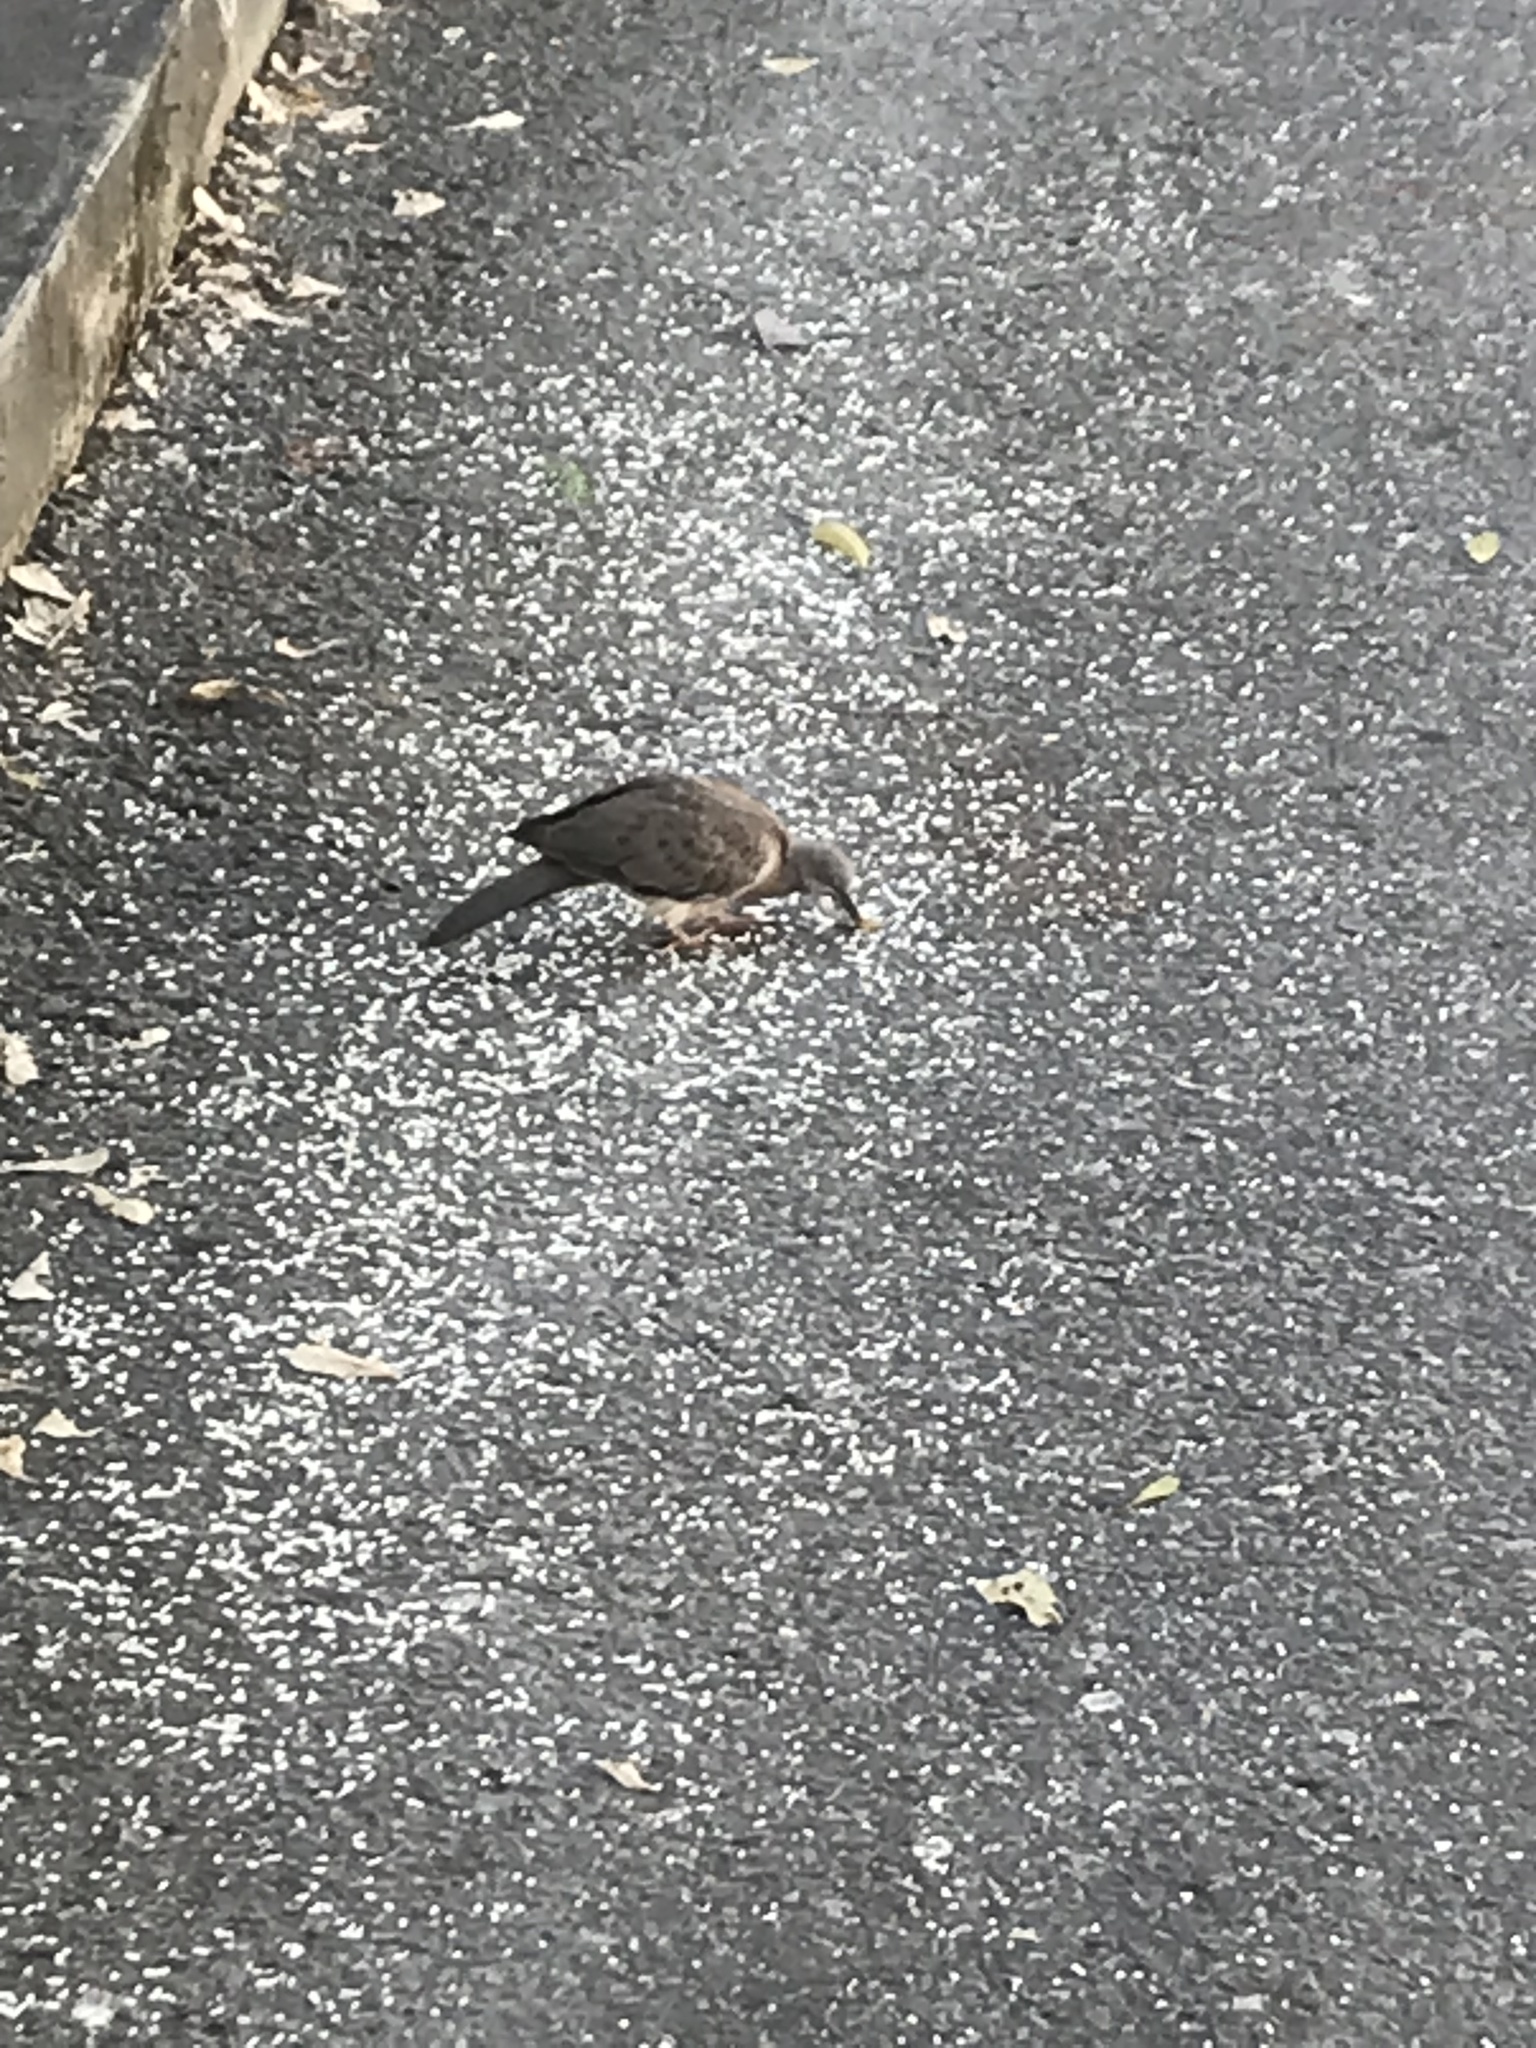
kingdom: Animalia
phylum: Chordata
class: Aves
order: Columbiformes
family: Columbidae
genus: Spilopelia
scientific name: Spilopelia chinensis
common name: Spotted dove
